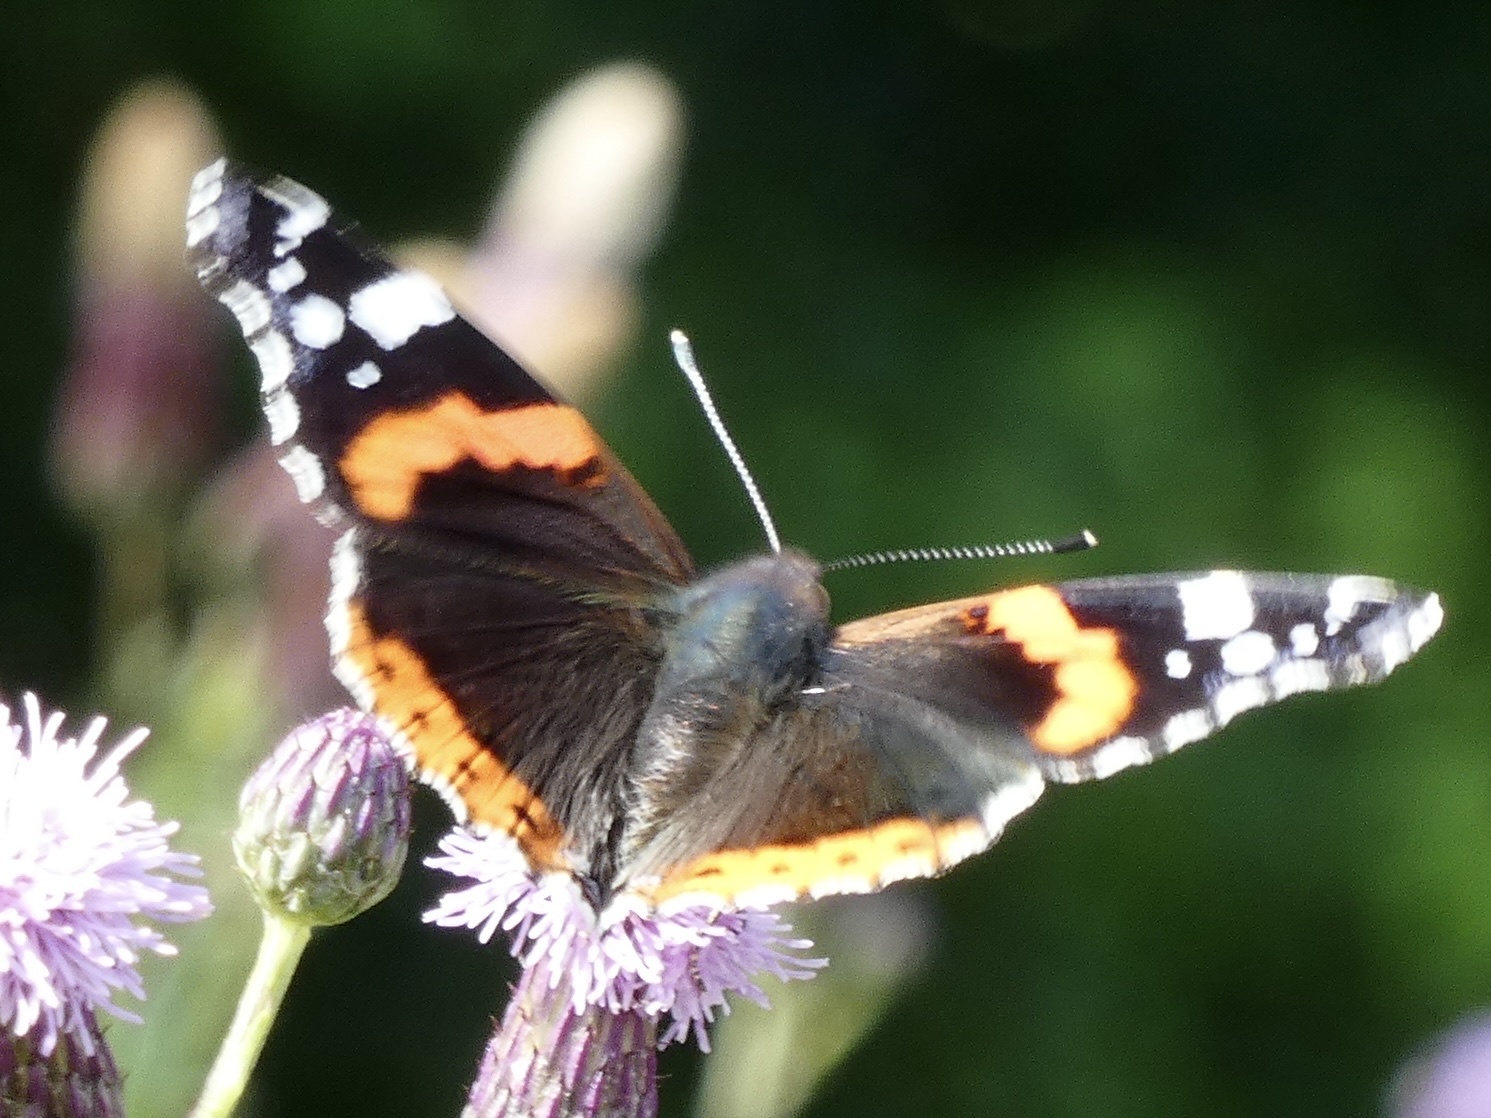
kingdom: Animalia
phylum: Arthropoda
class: Insecta
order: Lepidoptera
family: Nymphalidae
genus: Vanessa
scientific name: Vanessa atalanta
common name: Red admiral
